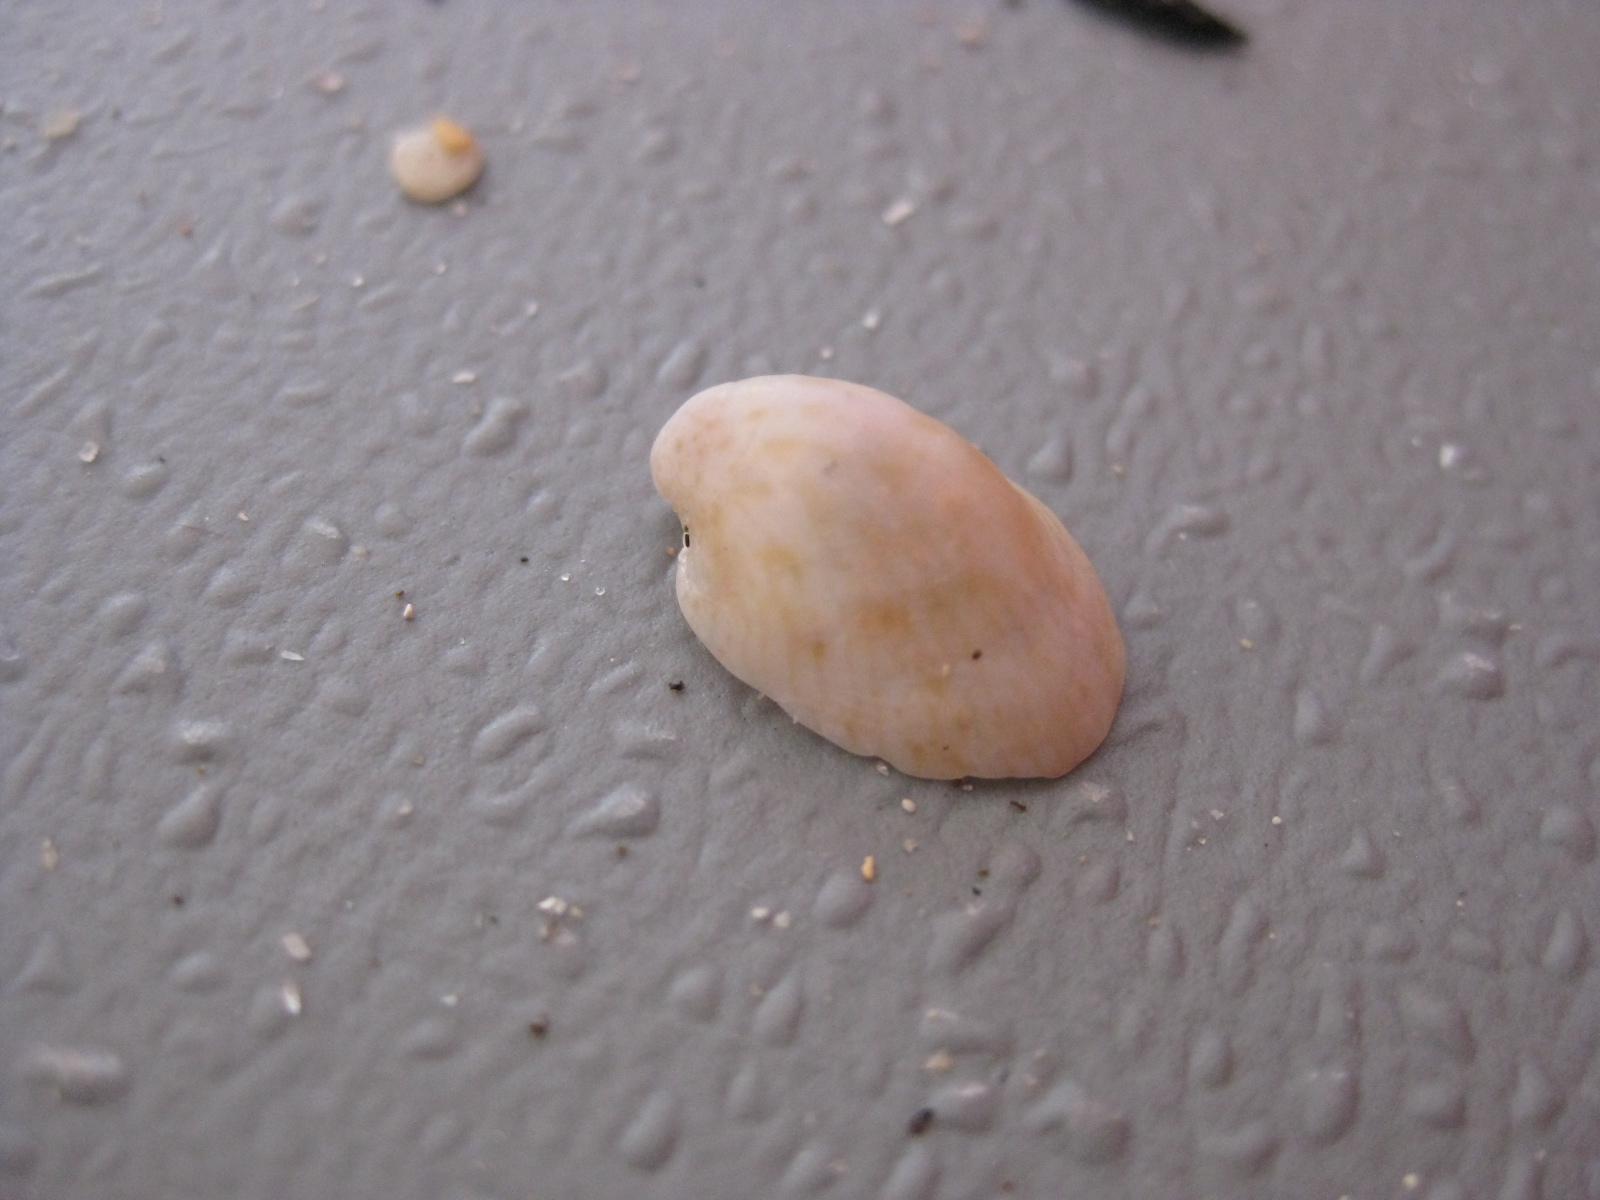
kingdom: Animalia
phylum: Mollusca
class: Gastropoda
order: Littorinimorpha
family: Calyptraeidae
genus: Maoricrypta
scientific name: Maoricrypta youngi
